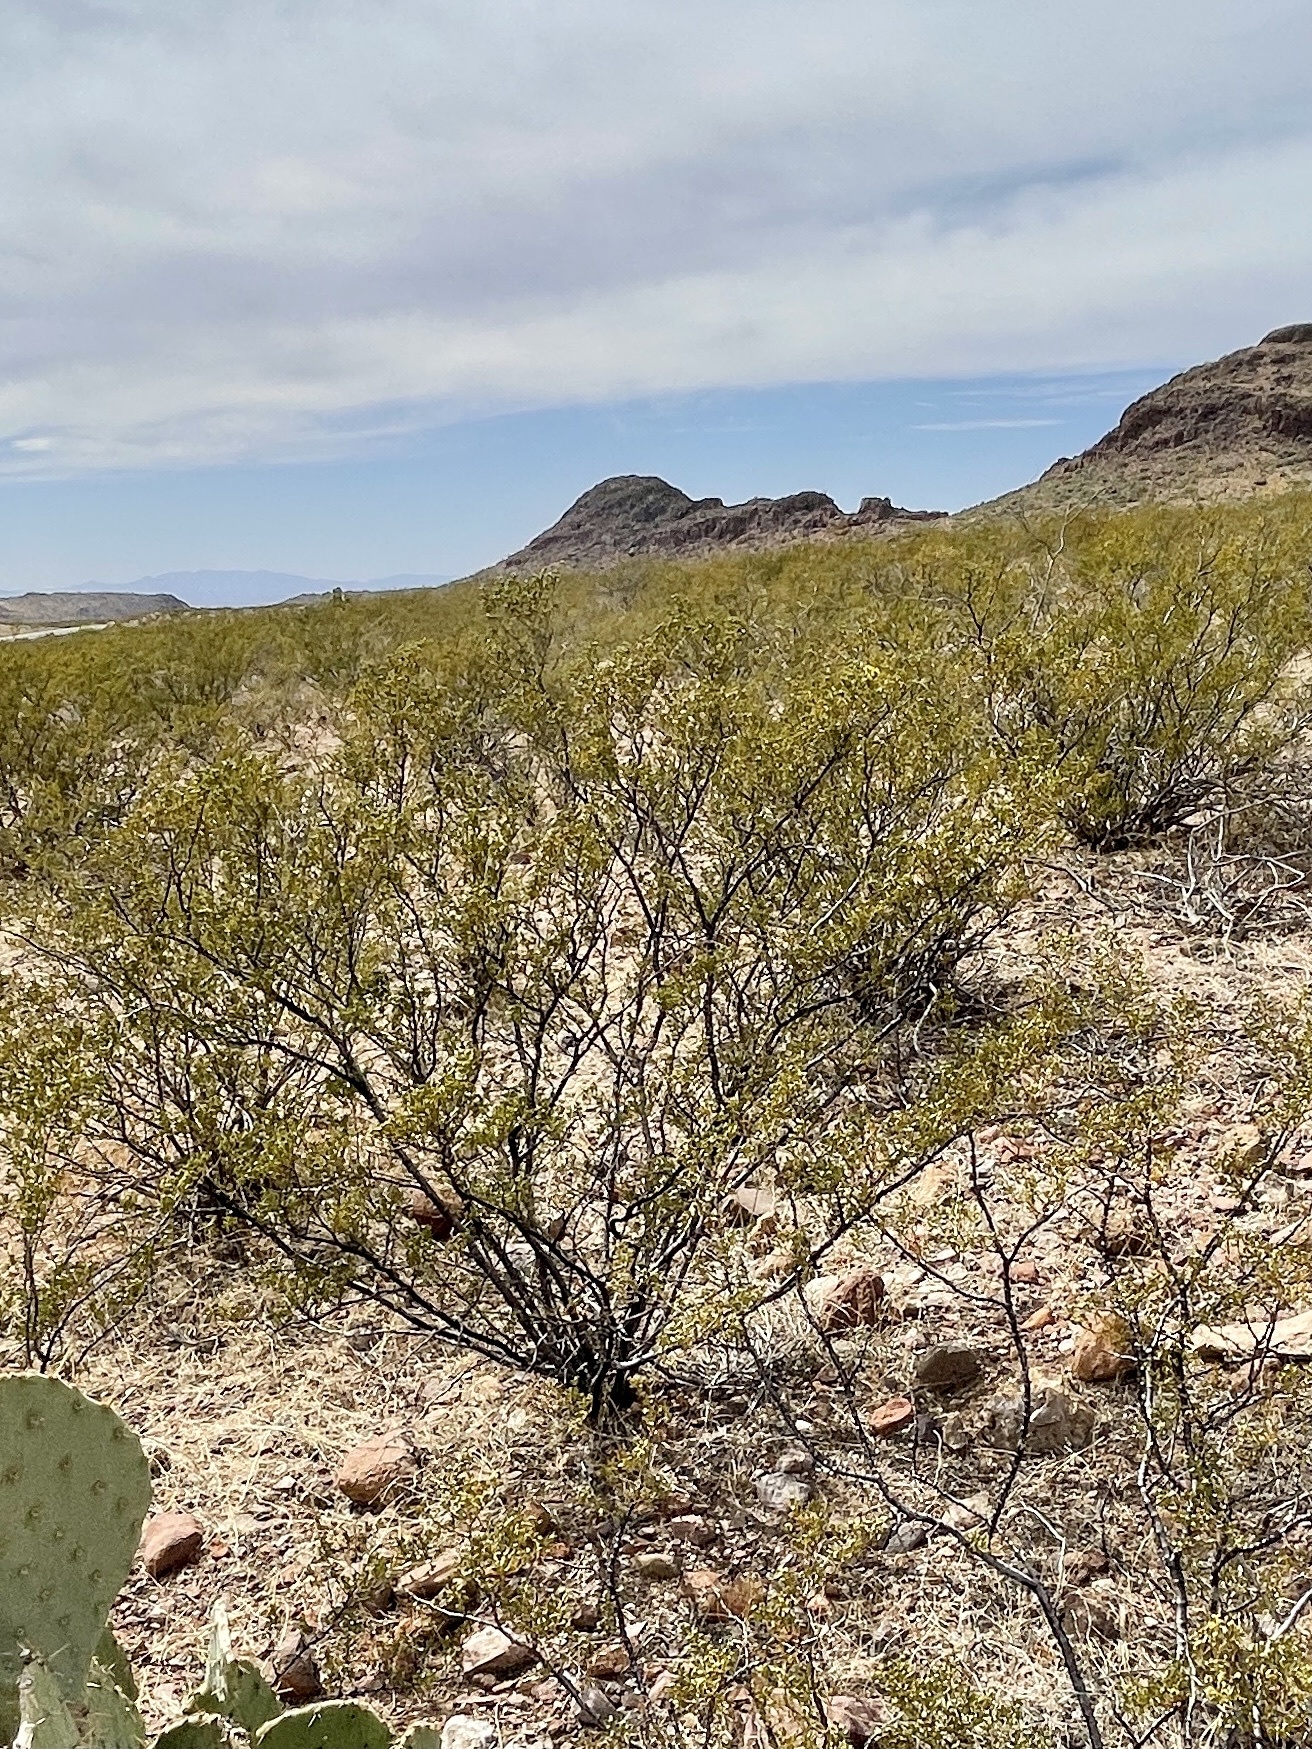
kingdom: Plantae
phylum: Tracheophyta
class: Magnoliopsida
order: Zygophyllales
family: Zygophyllaceae
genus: Larrea
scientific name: Larrea tridentata
